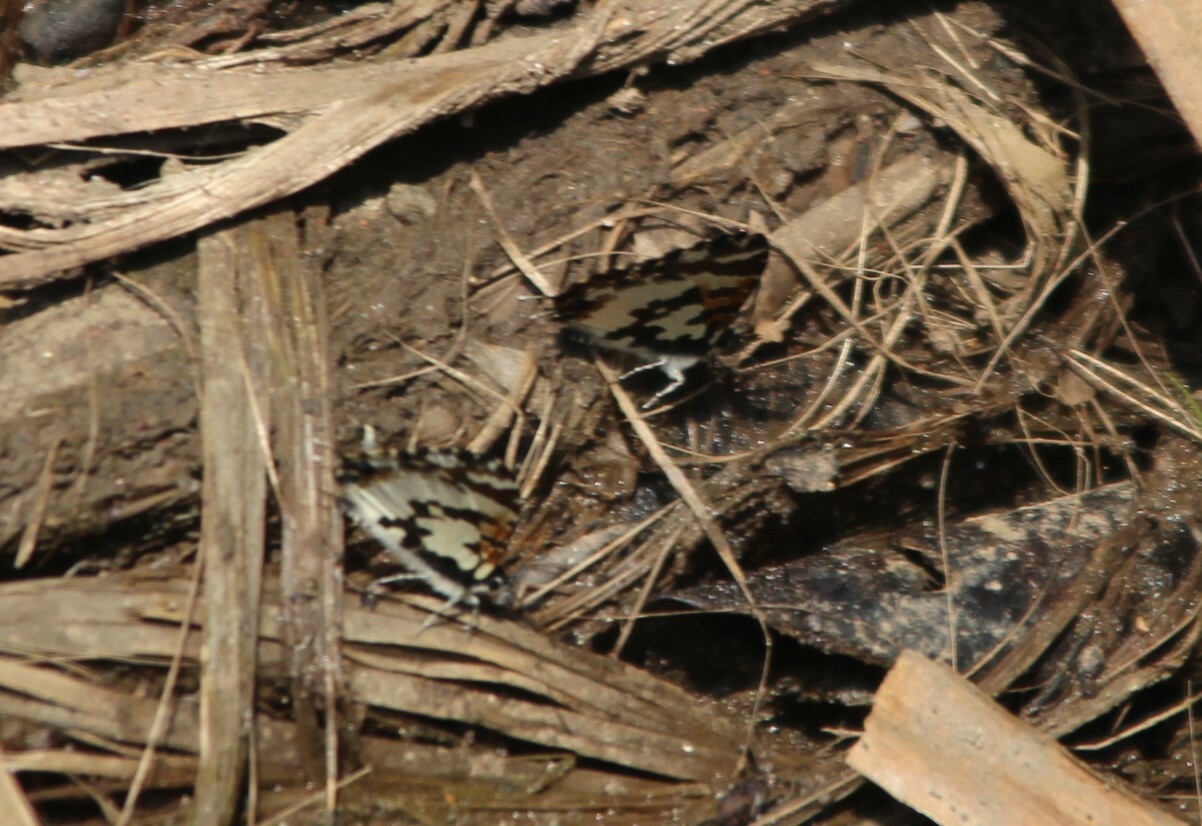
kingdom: Animalia
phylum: Arthropoda
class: Insecta
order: Lepidoptera
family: Lycaenidae
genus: Uranothauma
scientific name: Uranothauma falkensteini
